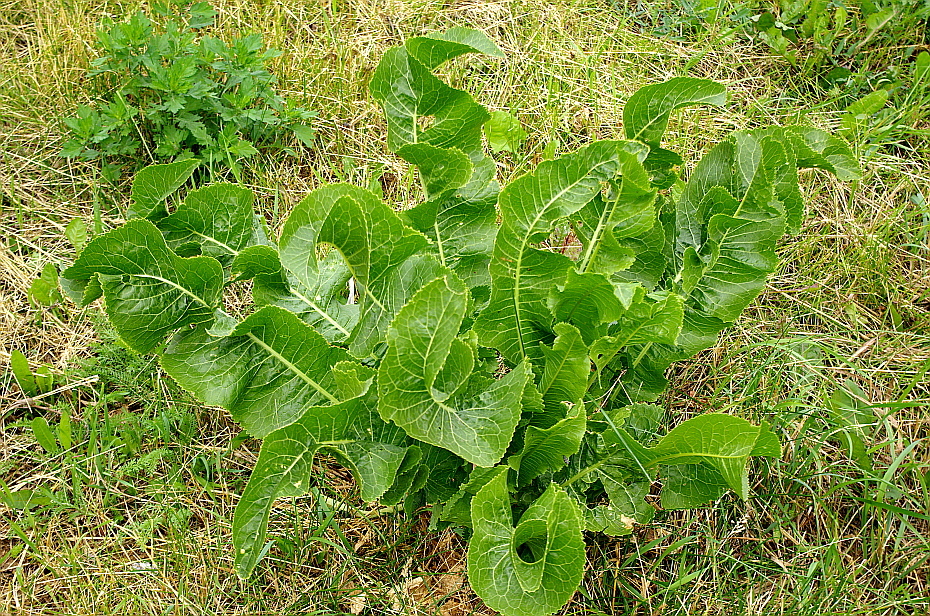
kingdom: Plantae
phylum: Tracheophyta
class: Magnoliopsida
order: Brassicales
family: Brassicaceae
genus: Armoracia
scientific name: Armoracia rusticana
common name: Horseradish
